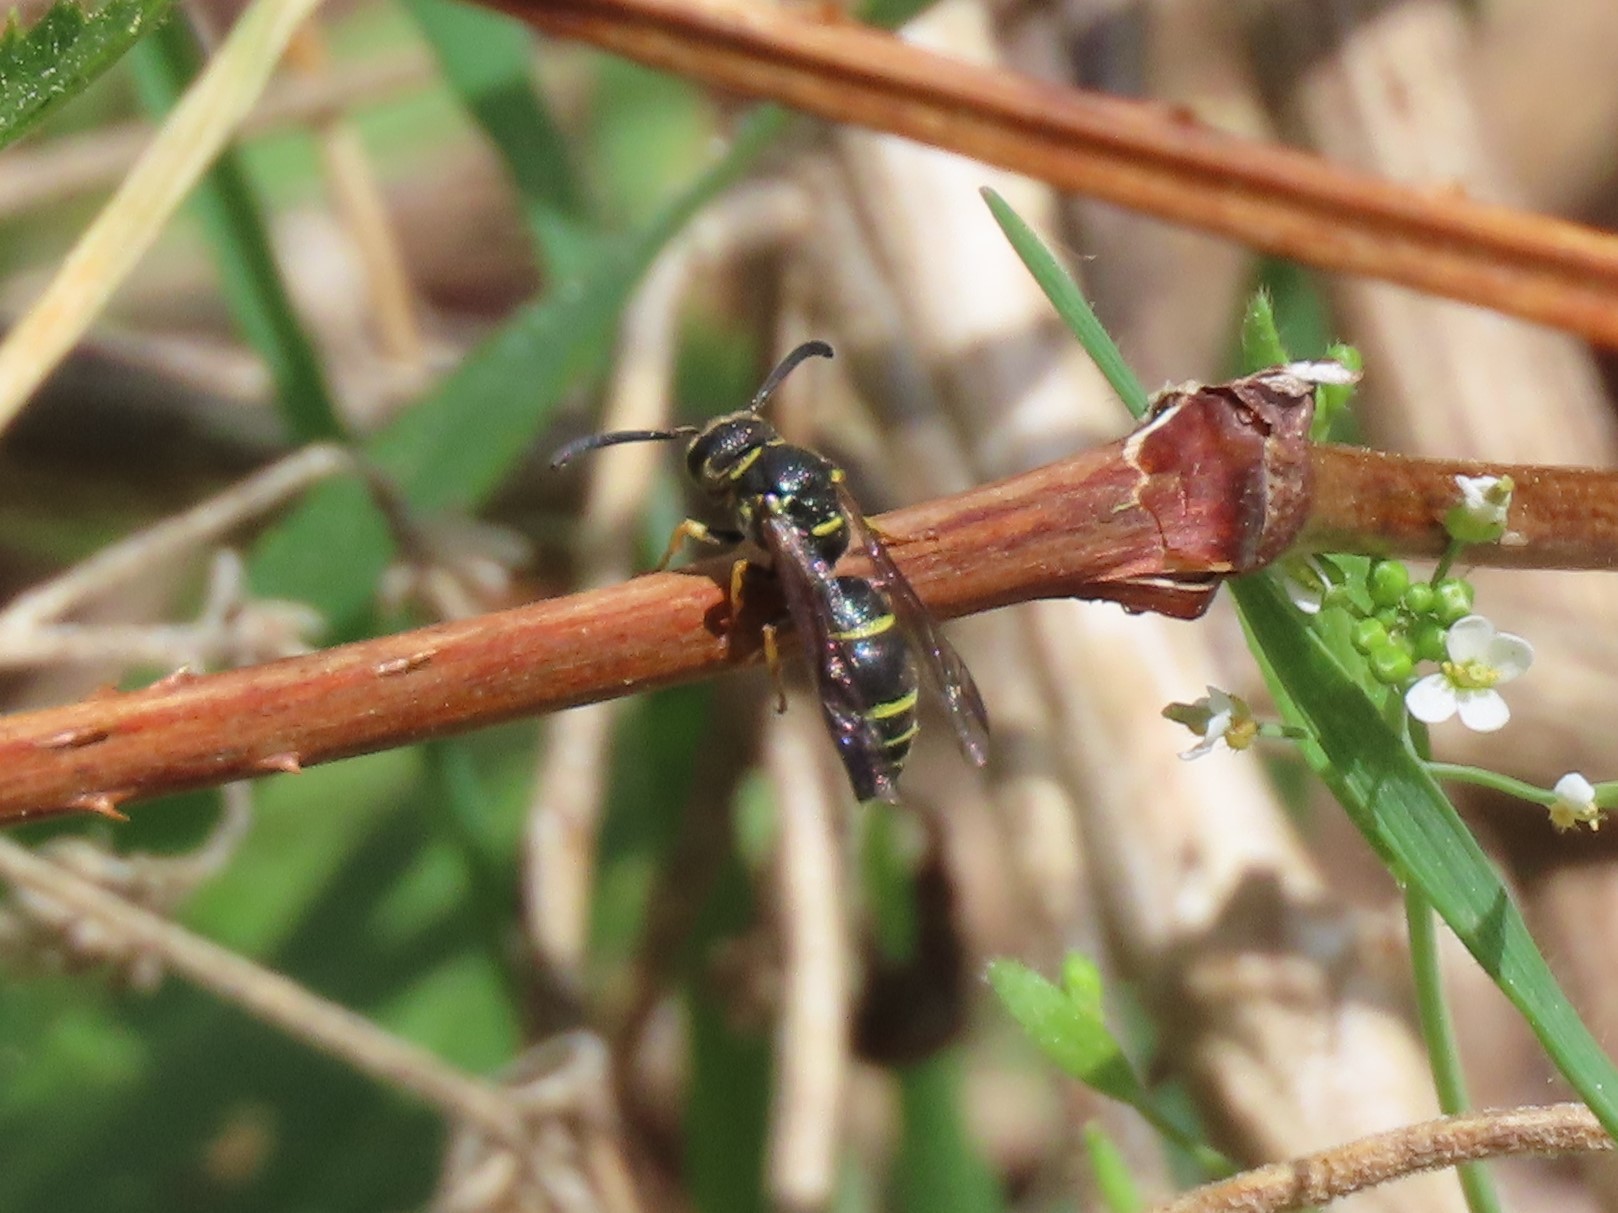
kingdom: Animalia
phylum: Arthropoda
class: Insecta
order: Hymenoptera
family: Eumenidae
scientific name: Eumenidae
